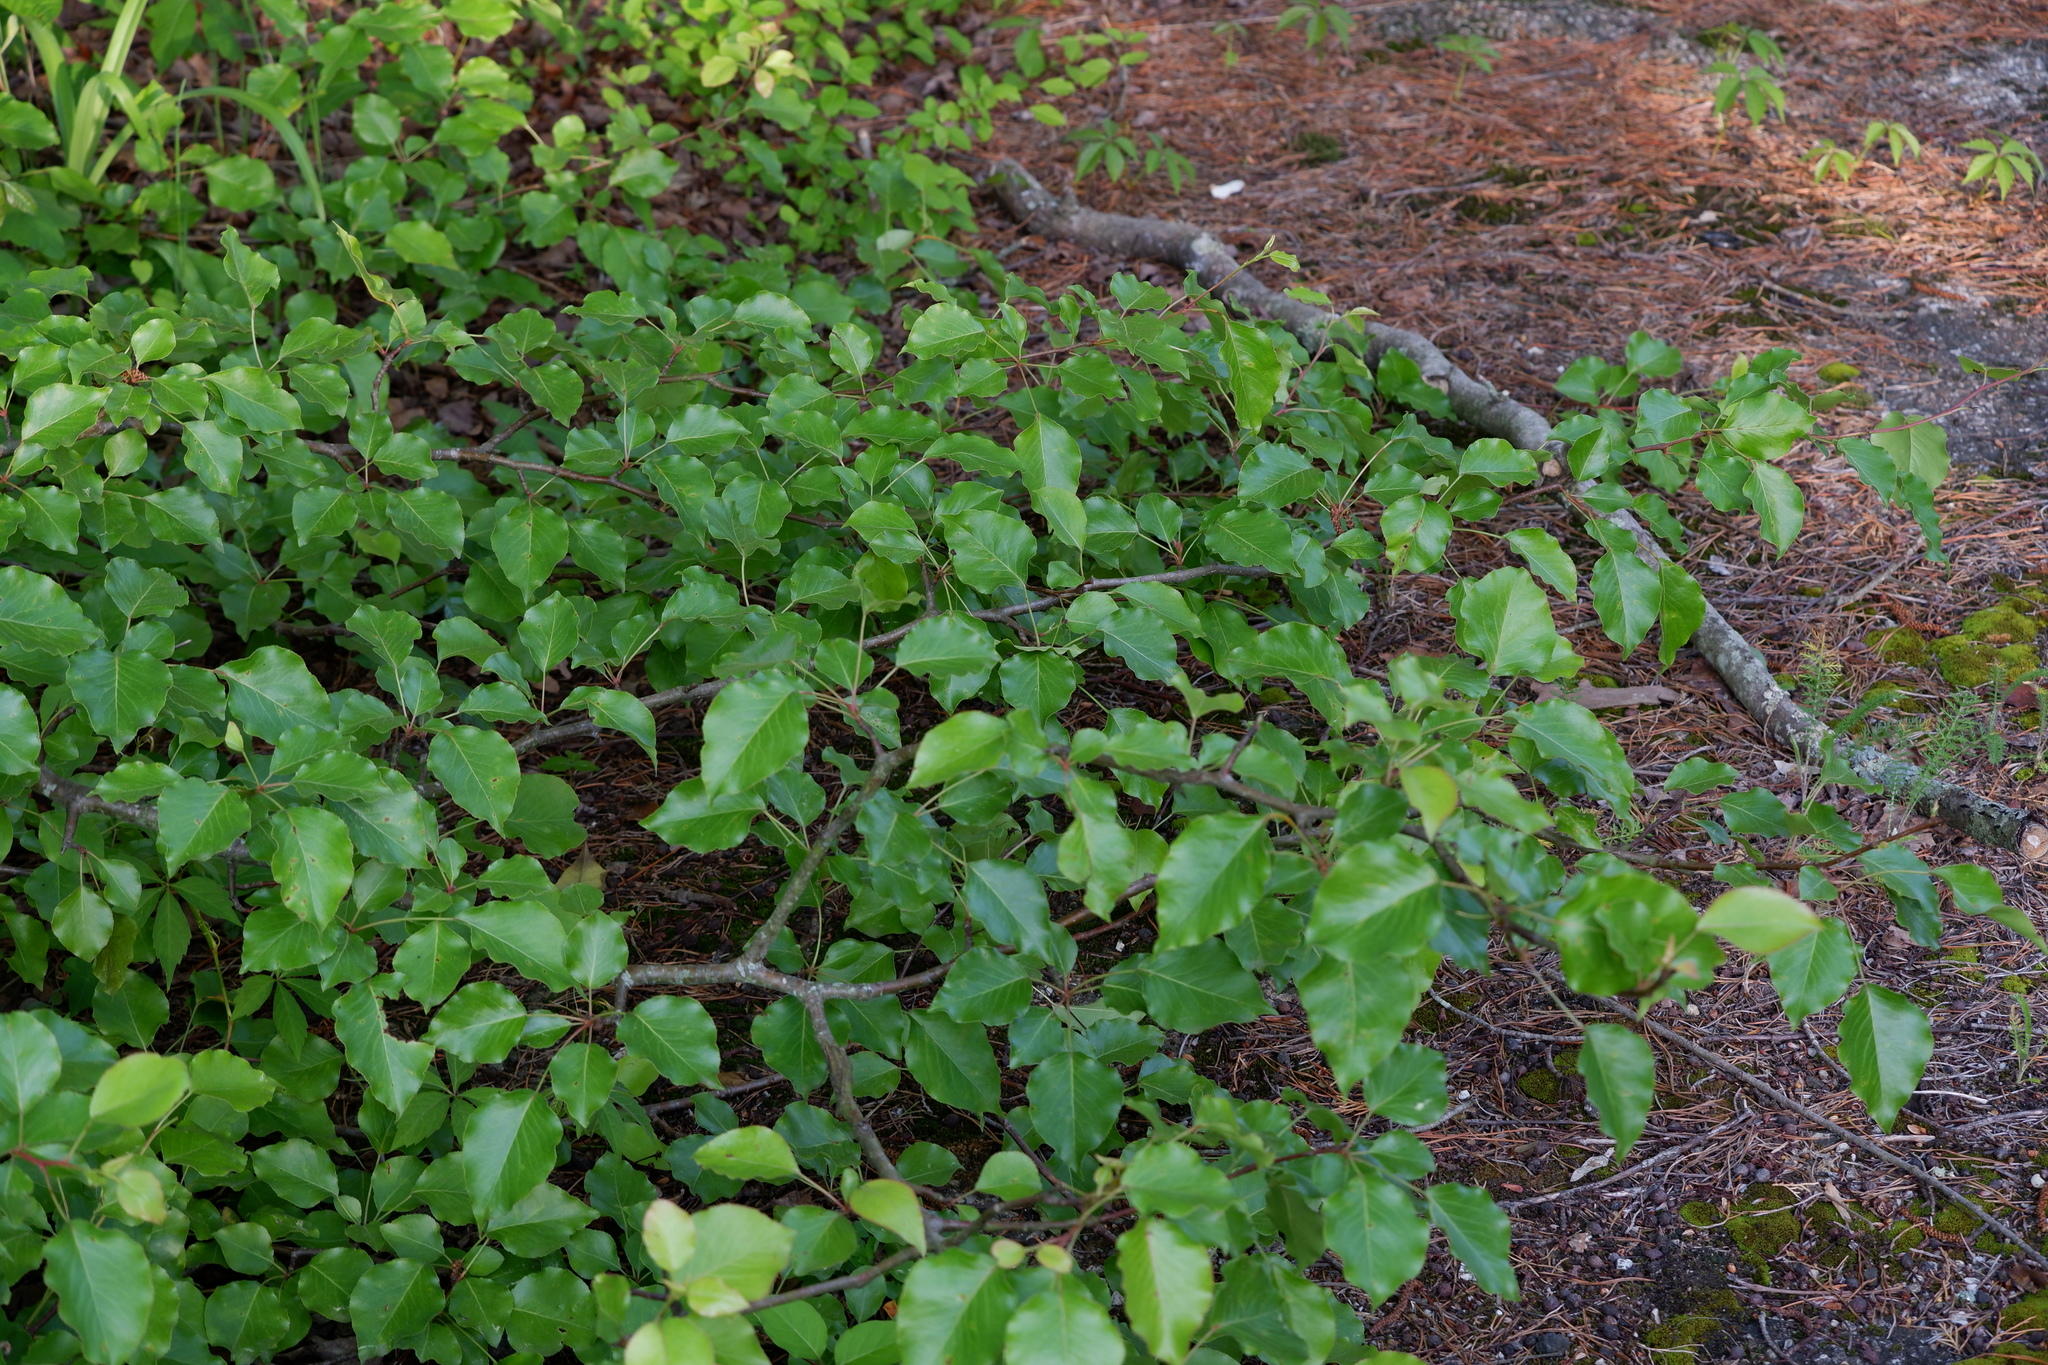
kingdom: Plantae
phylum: Tracheophyta
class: Magnoliopsida
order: Rosales
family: Rosaceae
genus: Pyrus
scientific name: Pyrus calleryana
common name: Callery pear
